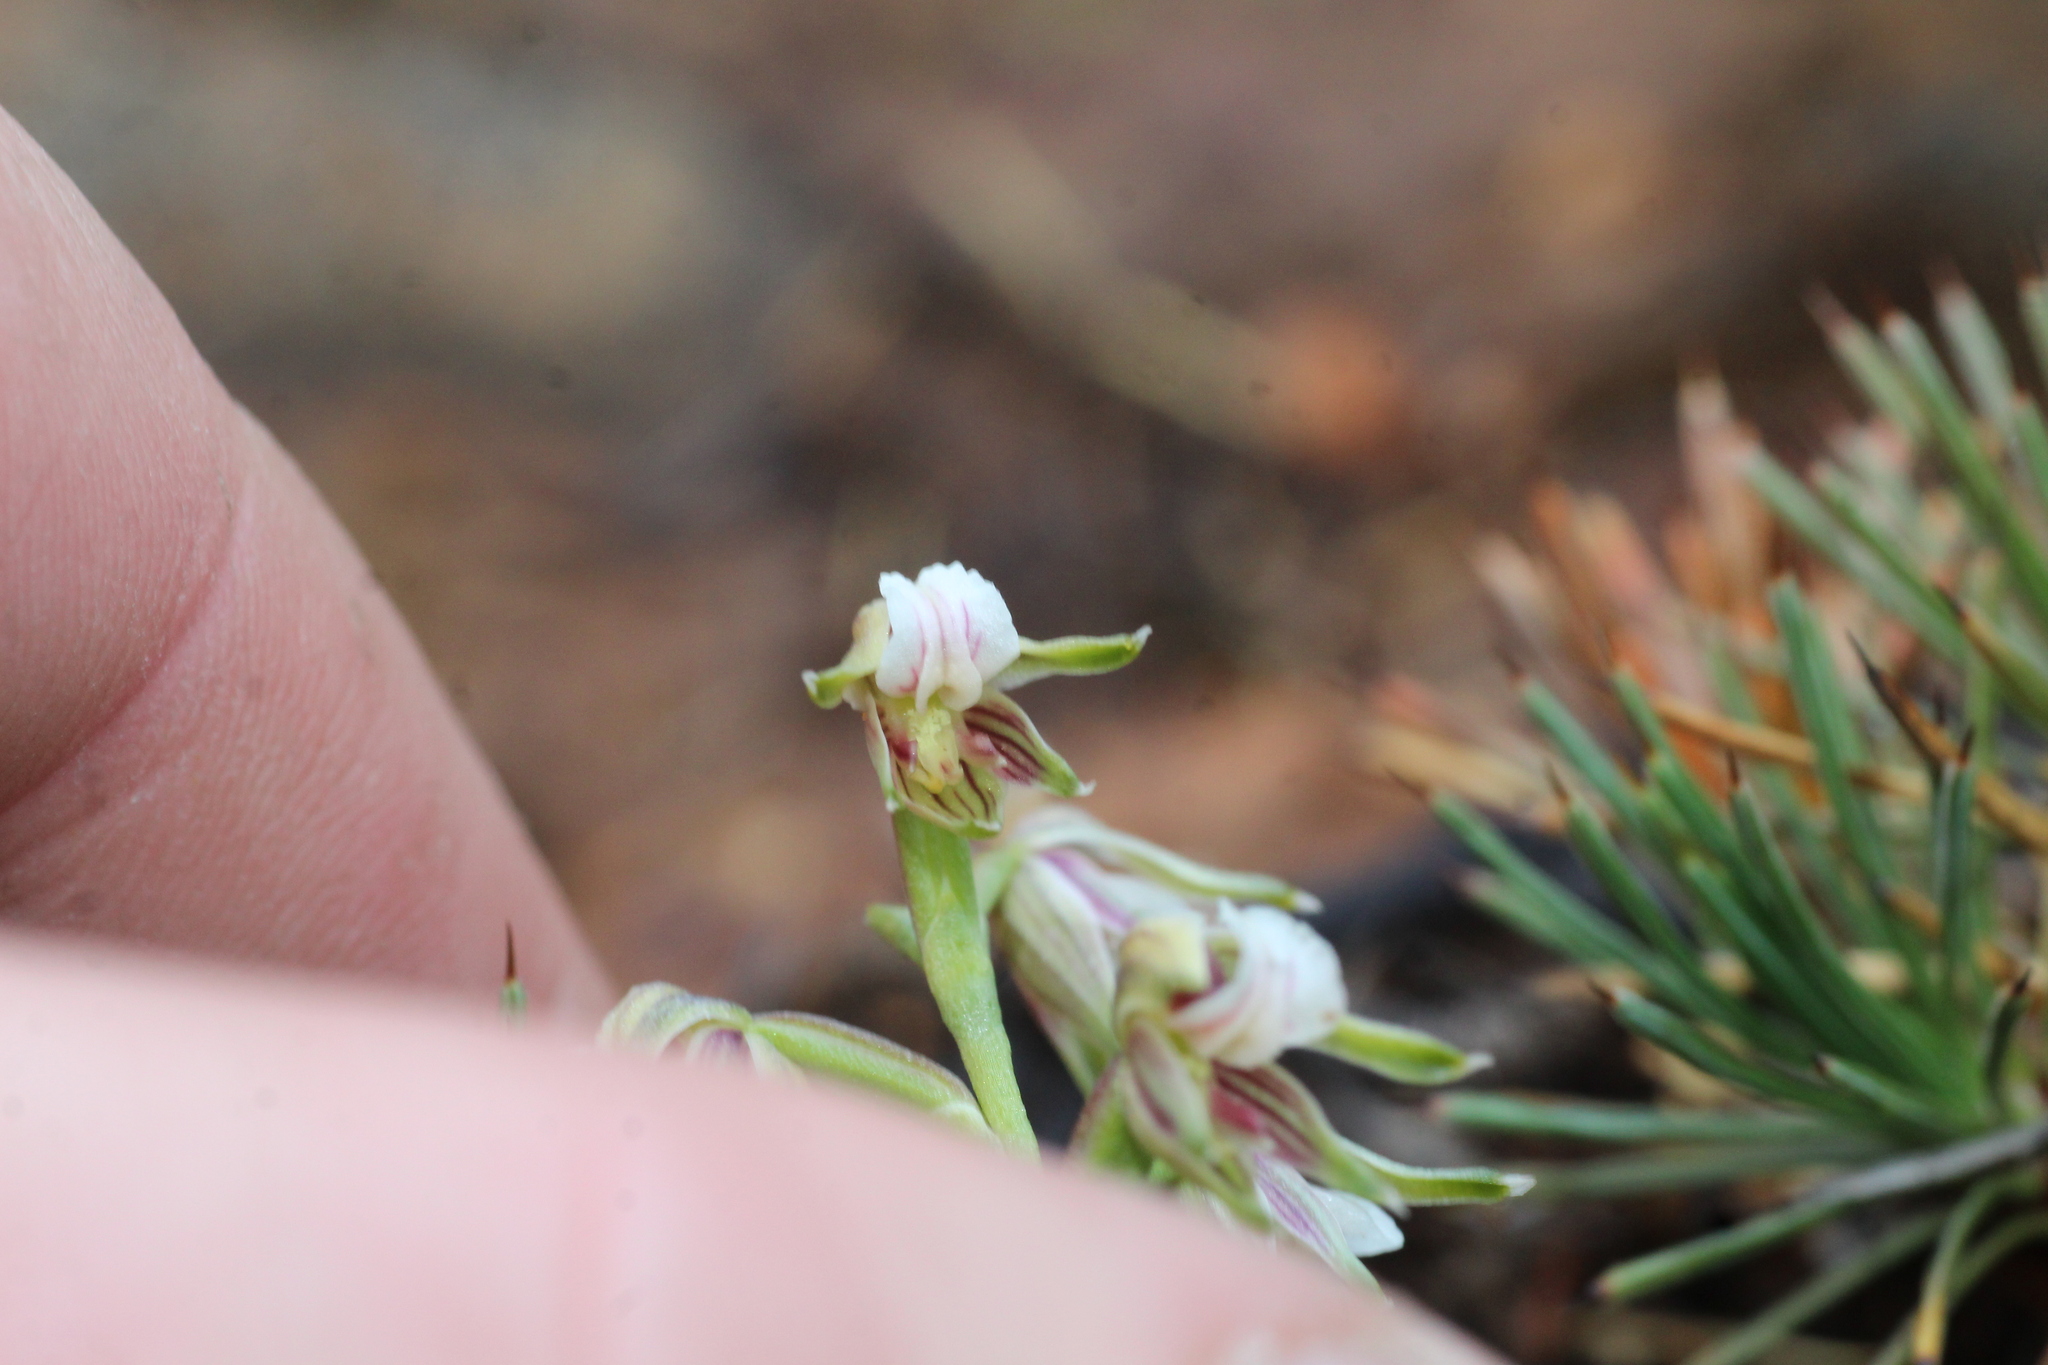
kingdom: Plantae
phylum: Tracheophyta
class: Liliopsida
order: Asparagales
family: Orchidaceae
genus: Prasophyllum
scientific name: Prasophyllum parvifolium
